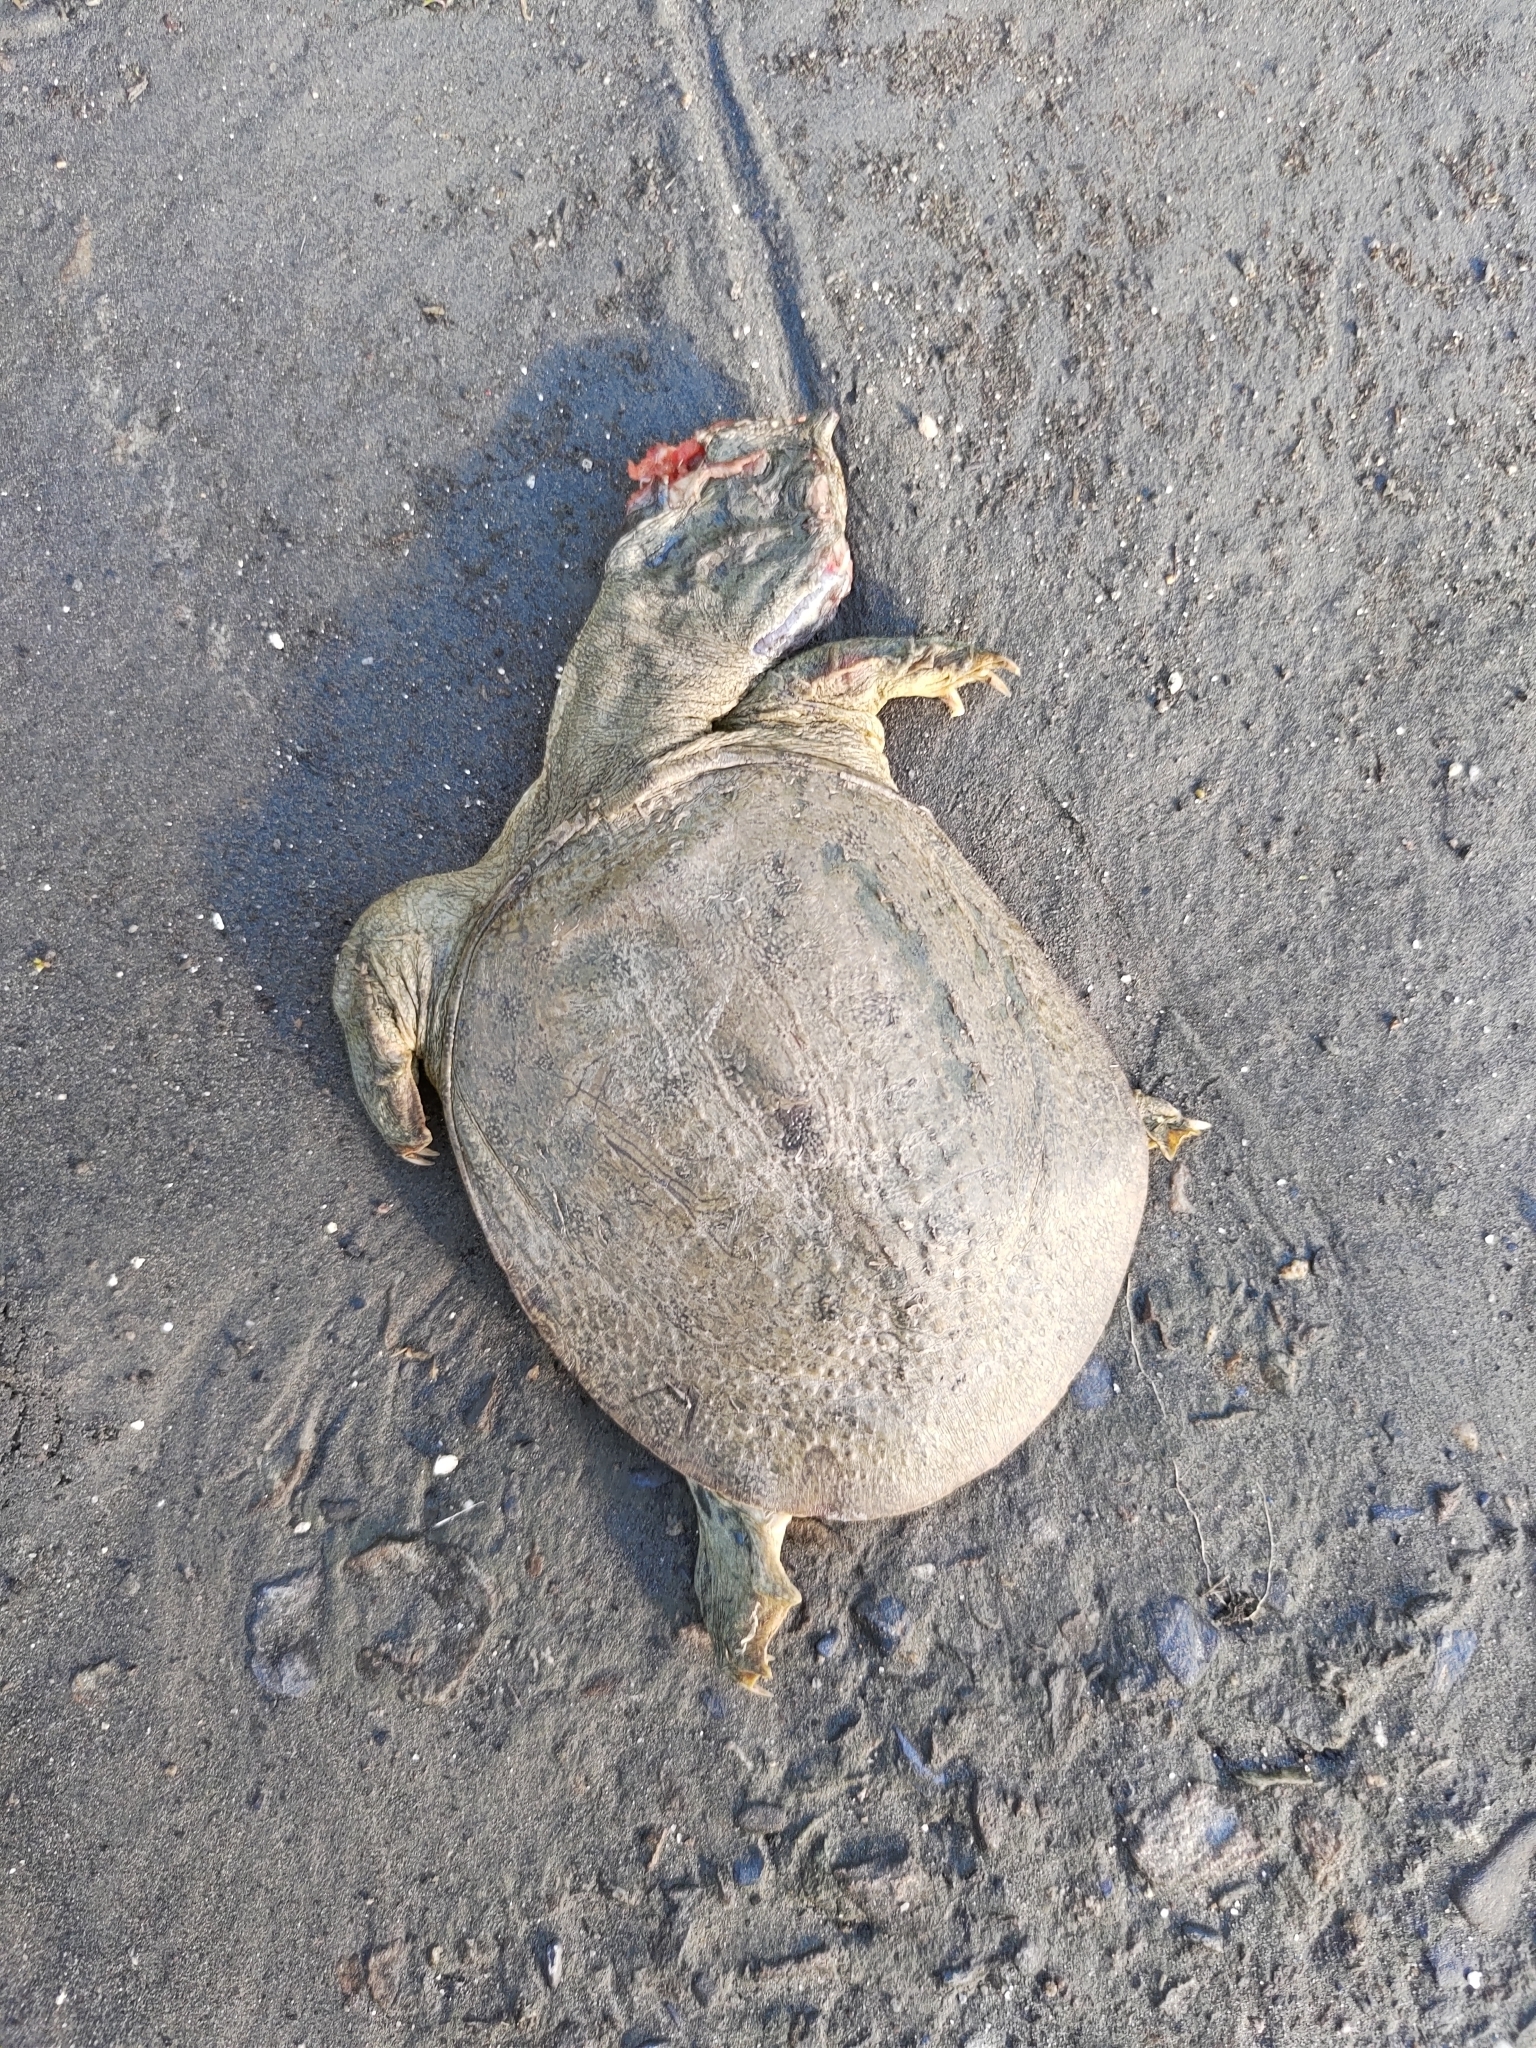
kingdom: Animalia
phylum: Chordata
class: Testudines
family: Trionychidae
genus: Pelodiscus
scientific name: Pelodiscus sinensis
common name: Chinese softshell turtle
